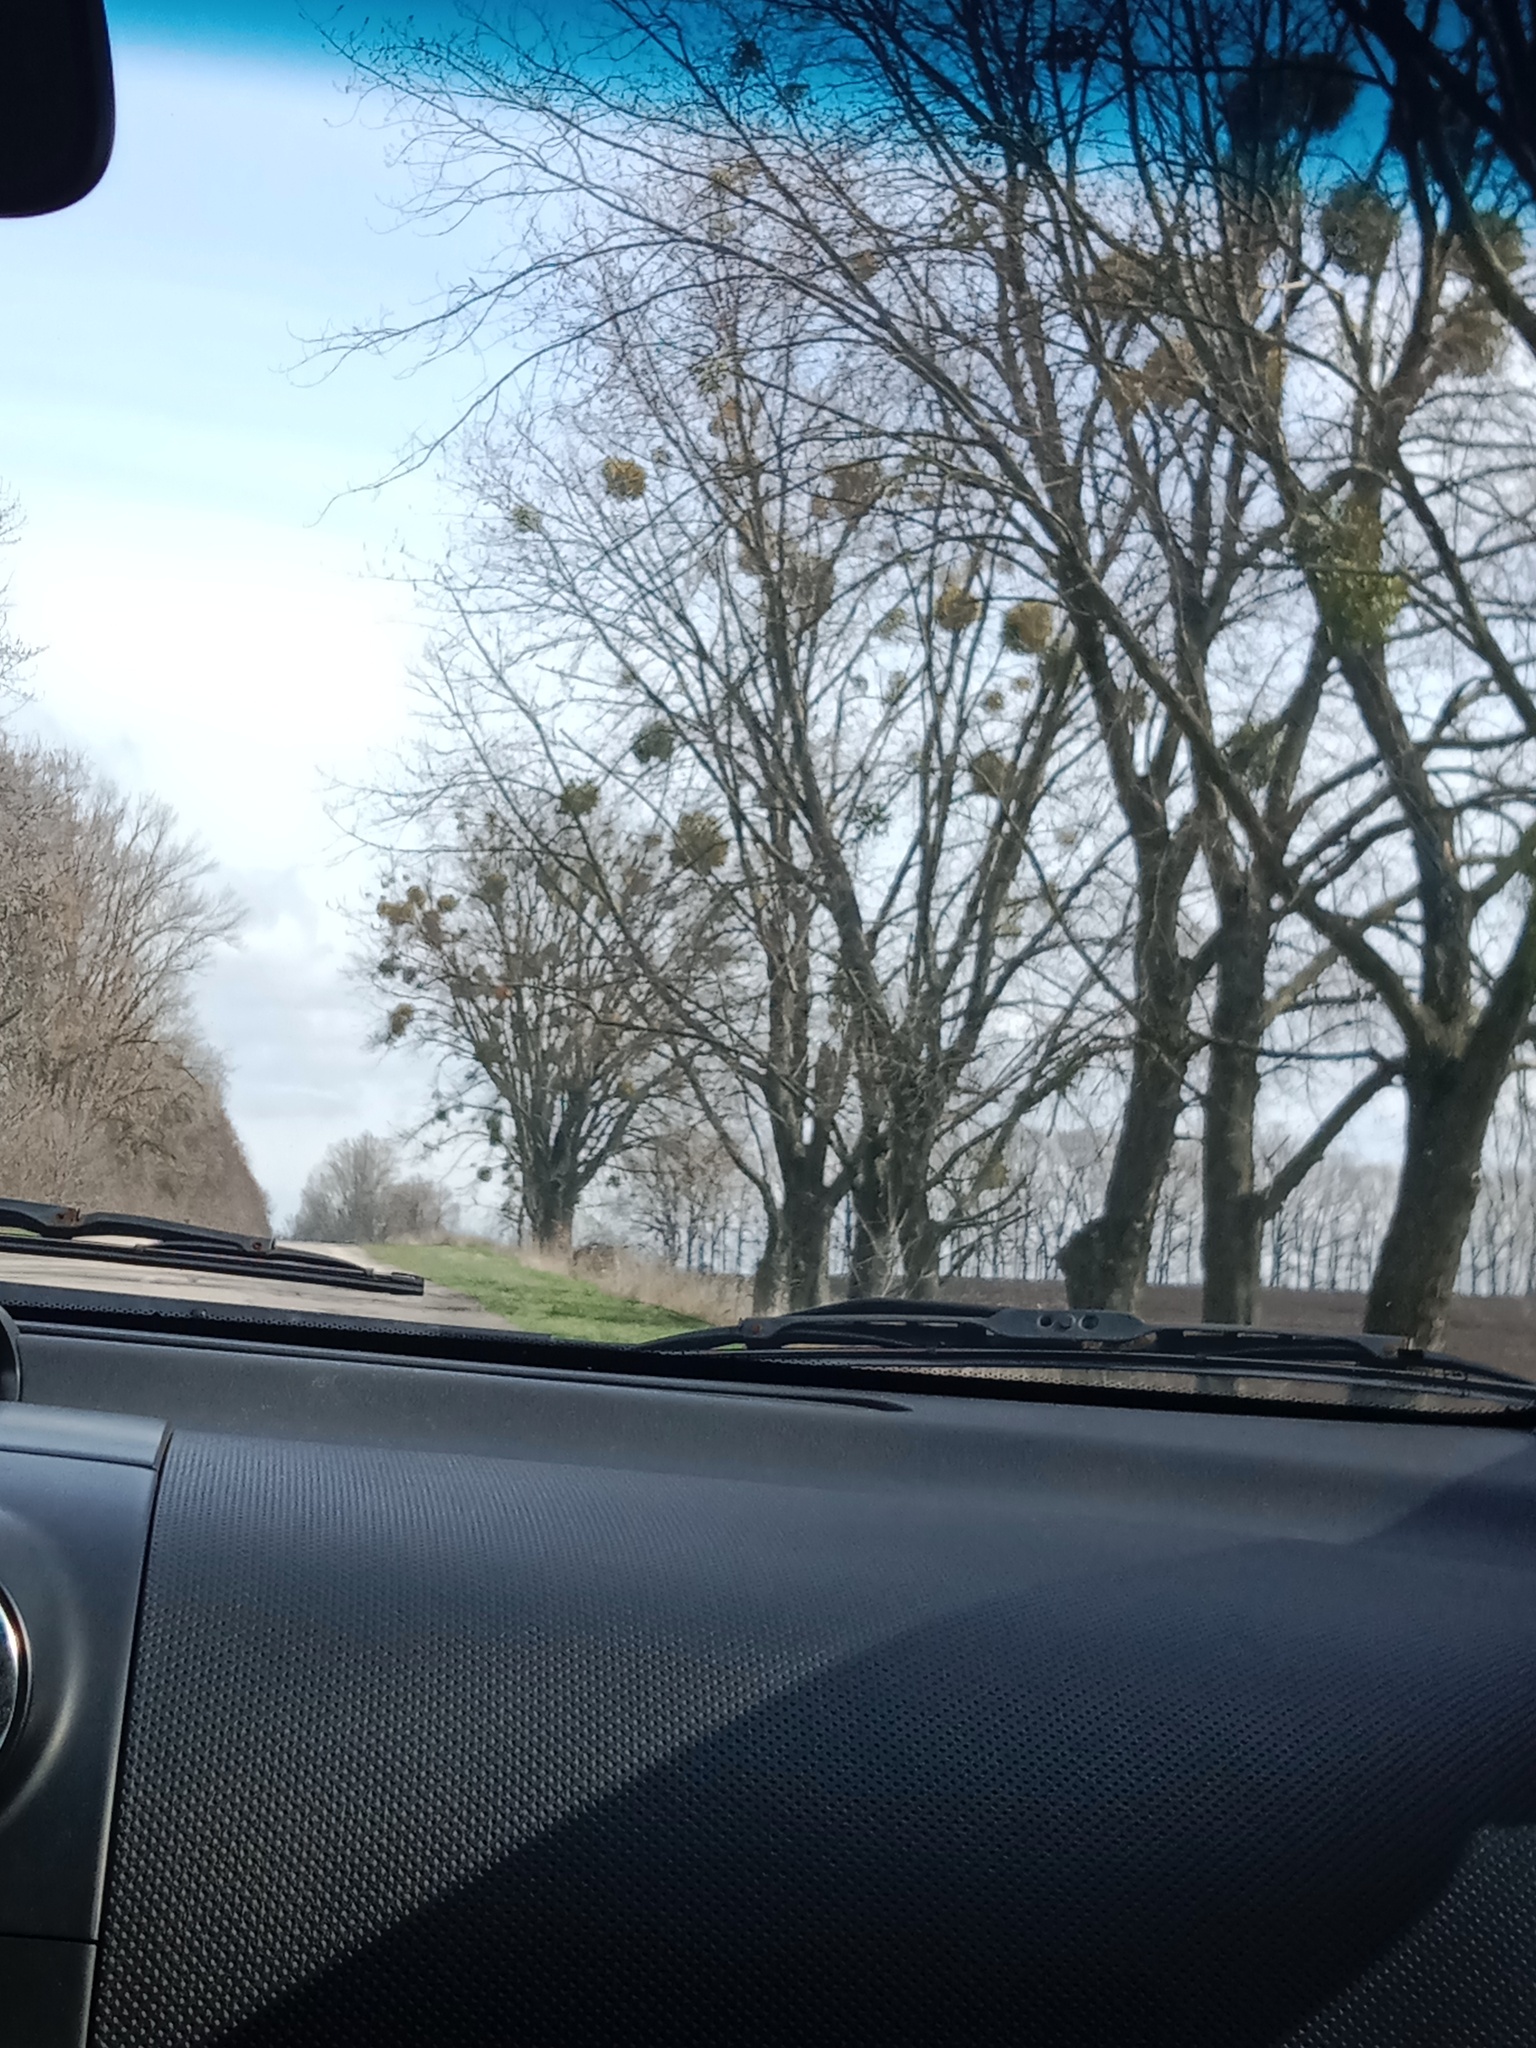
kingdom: Plantae
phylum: Tracheophyta
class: Magnoliopsida
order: Santalales
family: Viscaceae
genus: Viscum
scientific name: Viscum album
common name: Mistletoe
